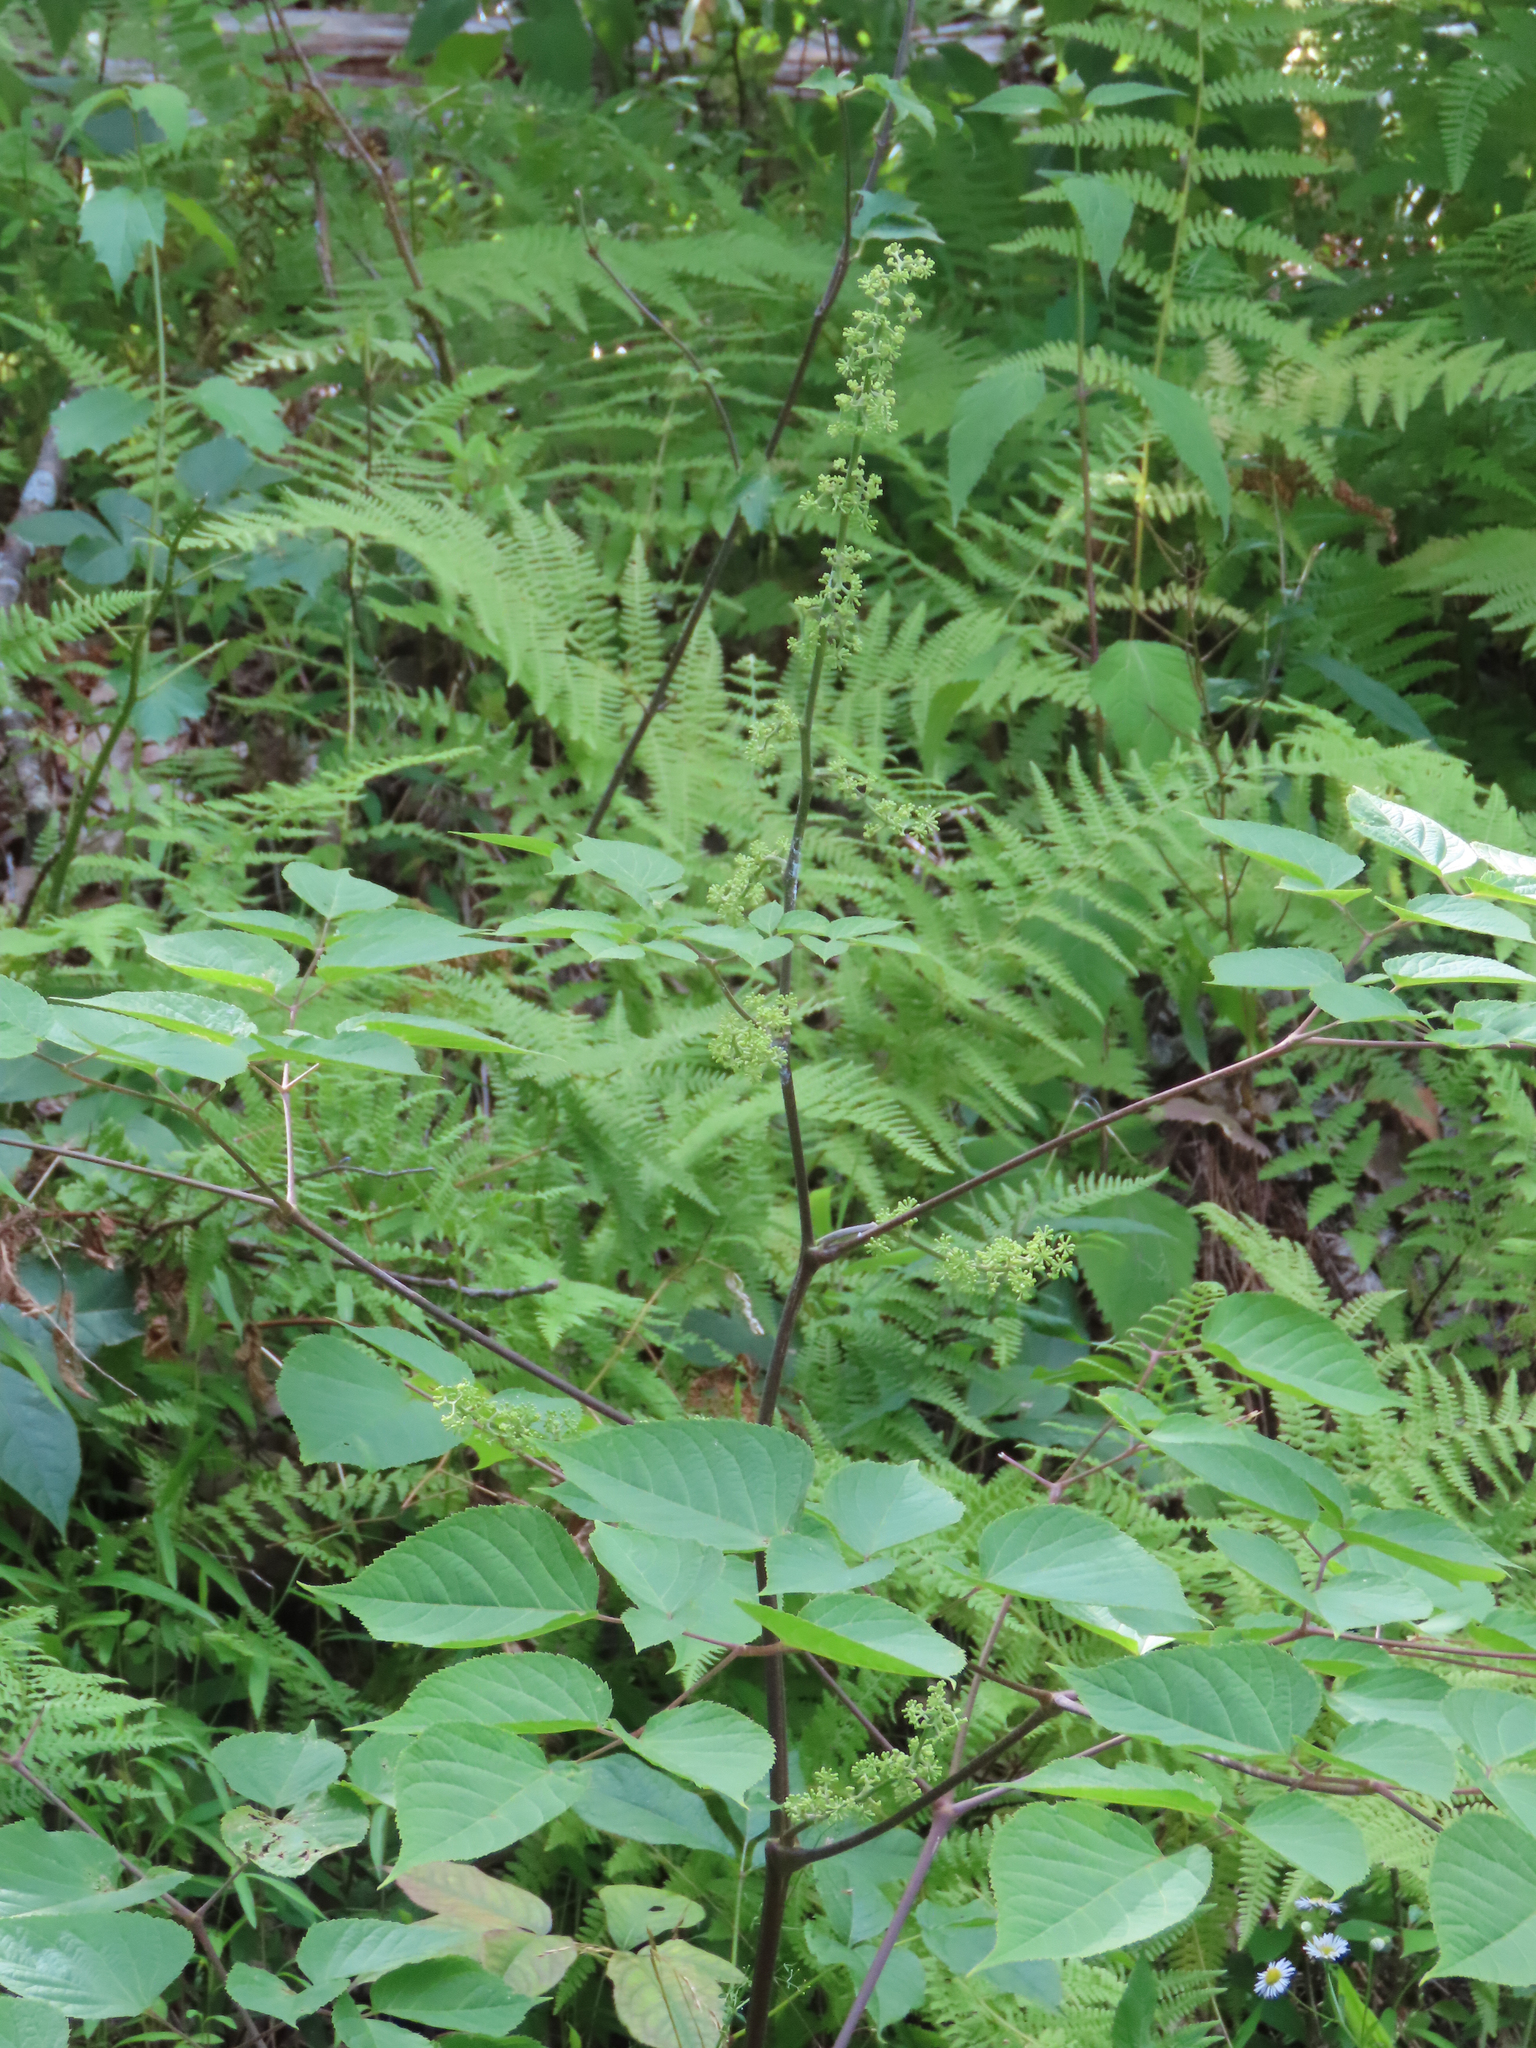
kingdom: Plantae
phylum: Tracheophyta
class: Magnoliopsida
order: Apiales
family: Araliaceae
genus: Aralia
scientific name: Aralia racemosa
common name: American-spikenard
